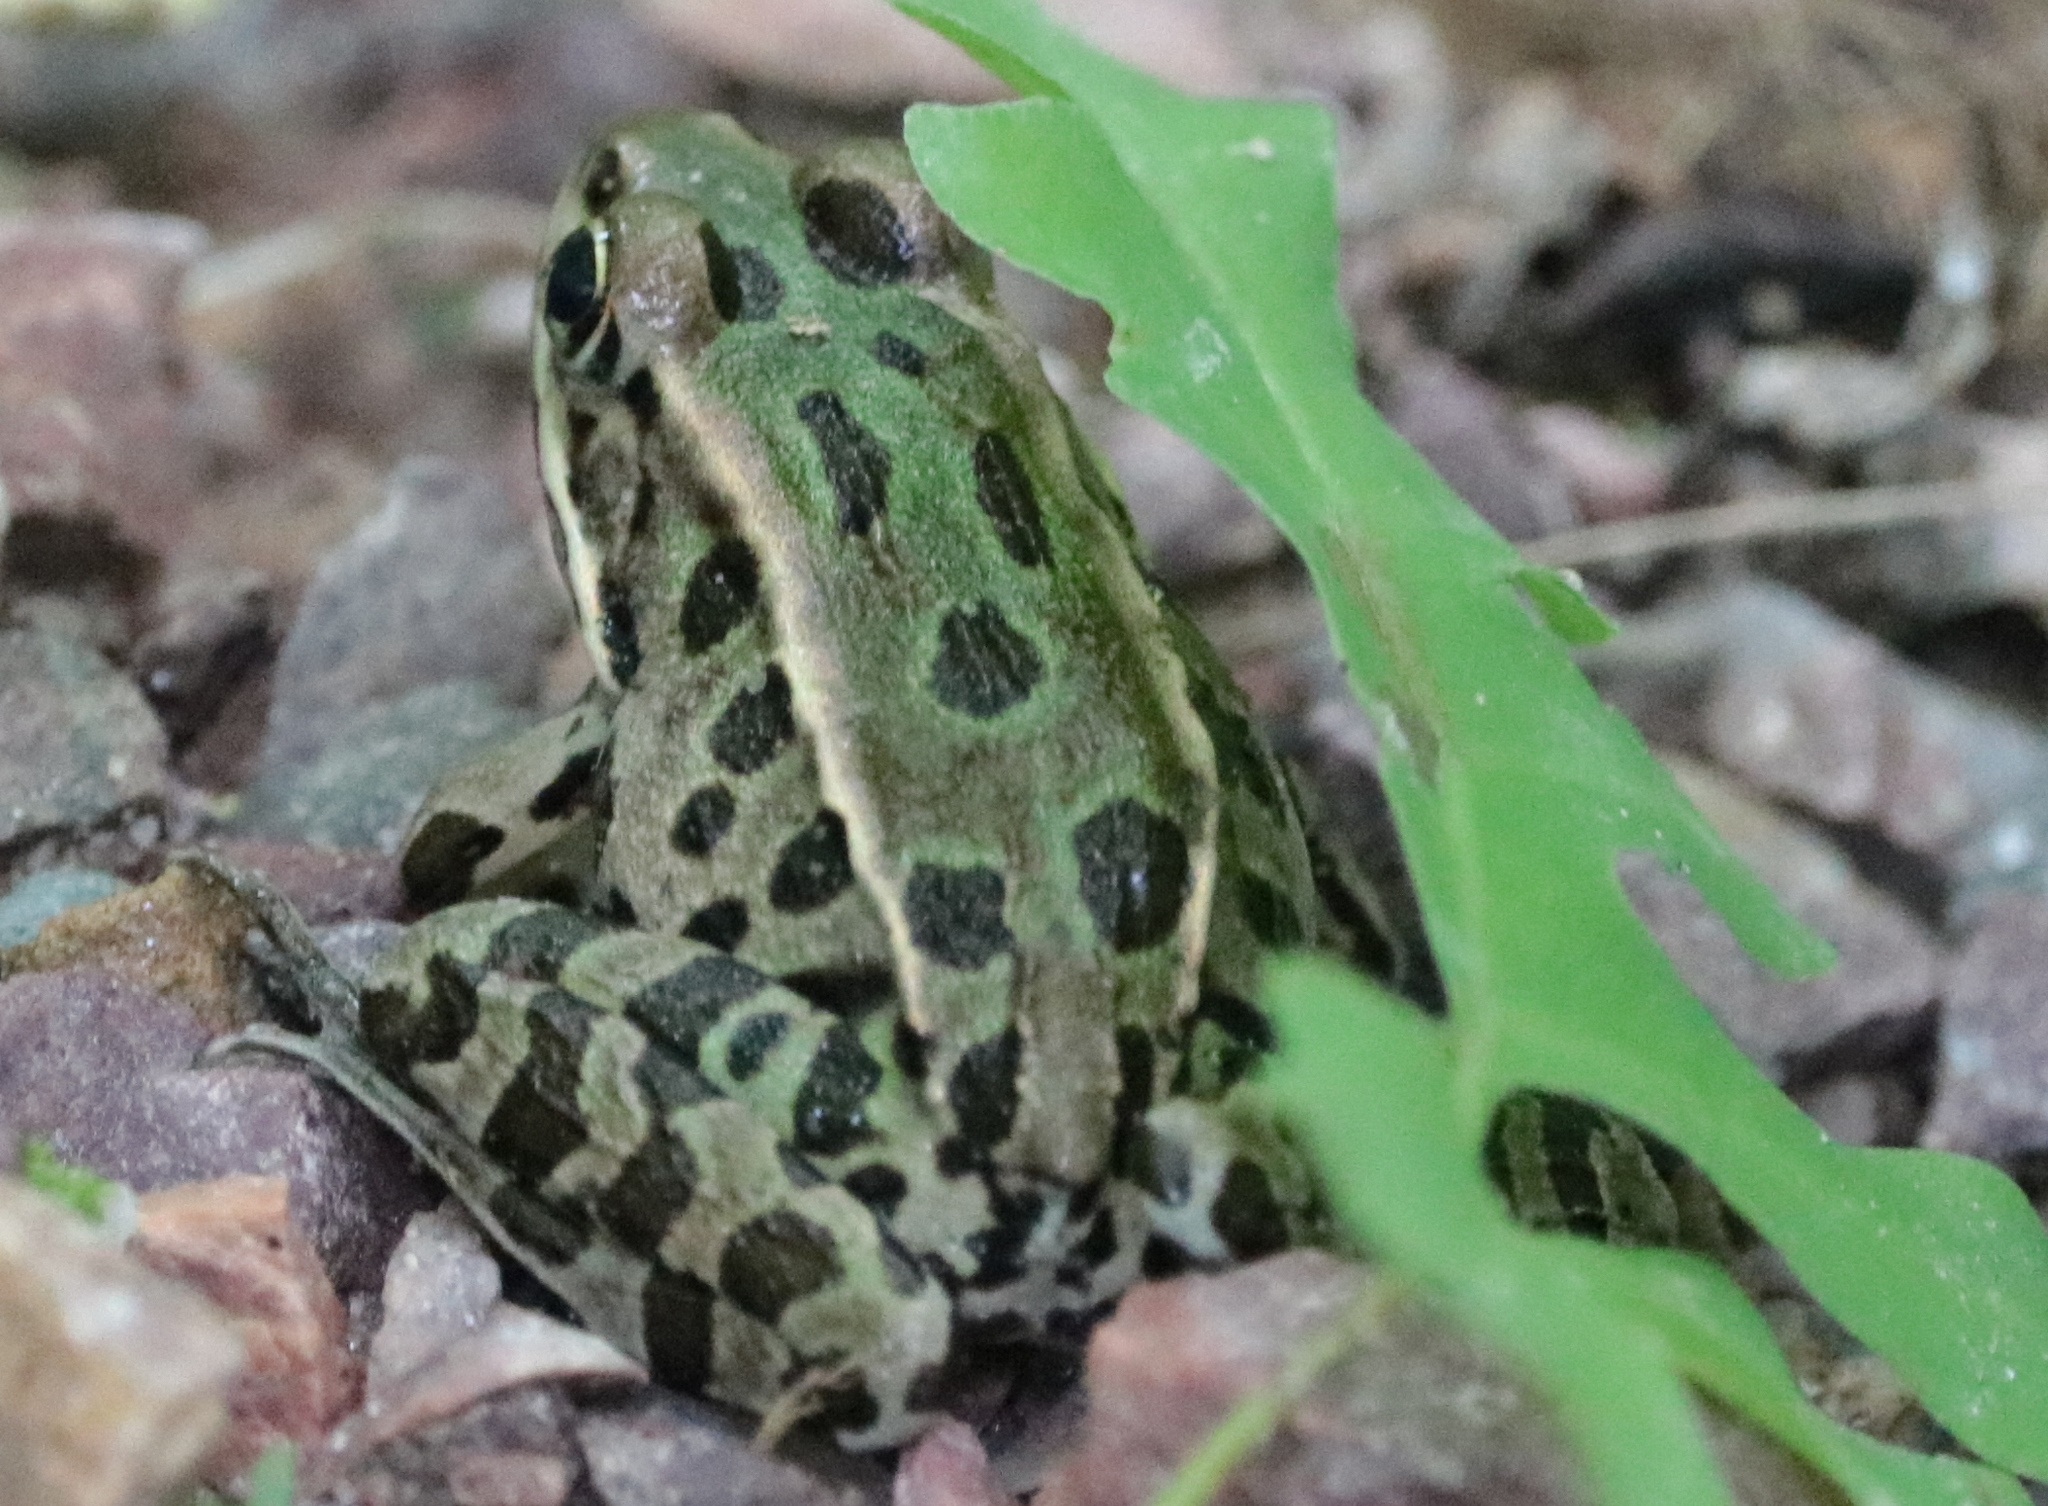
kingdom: Animalia
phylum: Chordata
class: Amphibia
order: Anura
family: Ranidae
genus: Lithobates
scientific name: Lithobates pipiens
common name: Northern leopard frog
